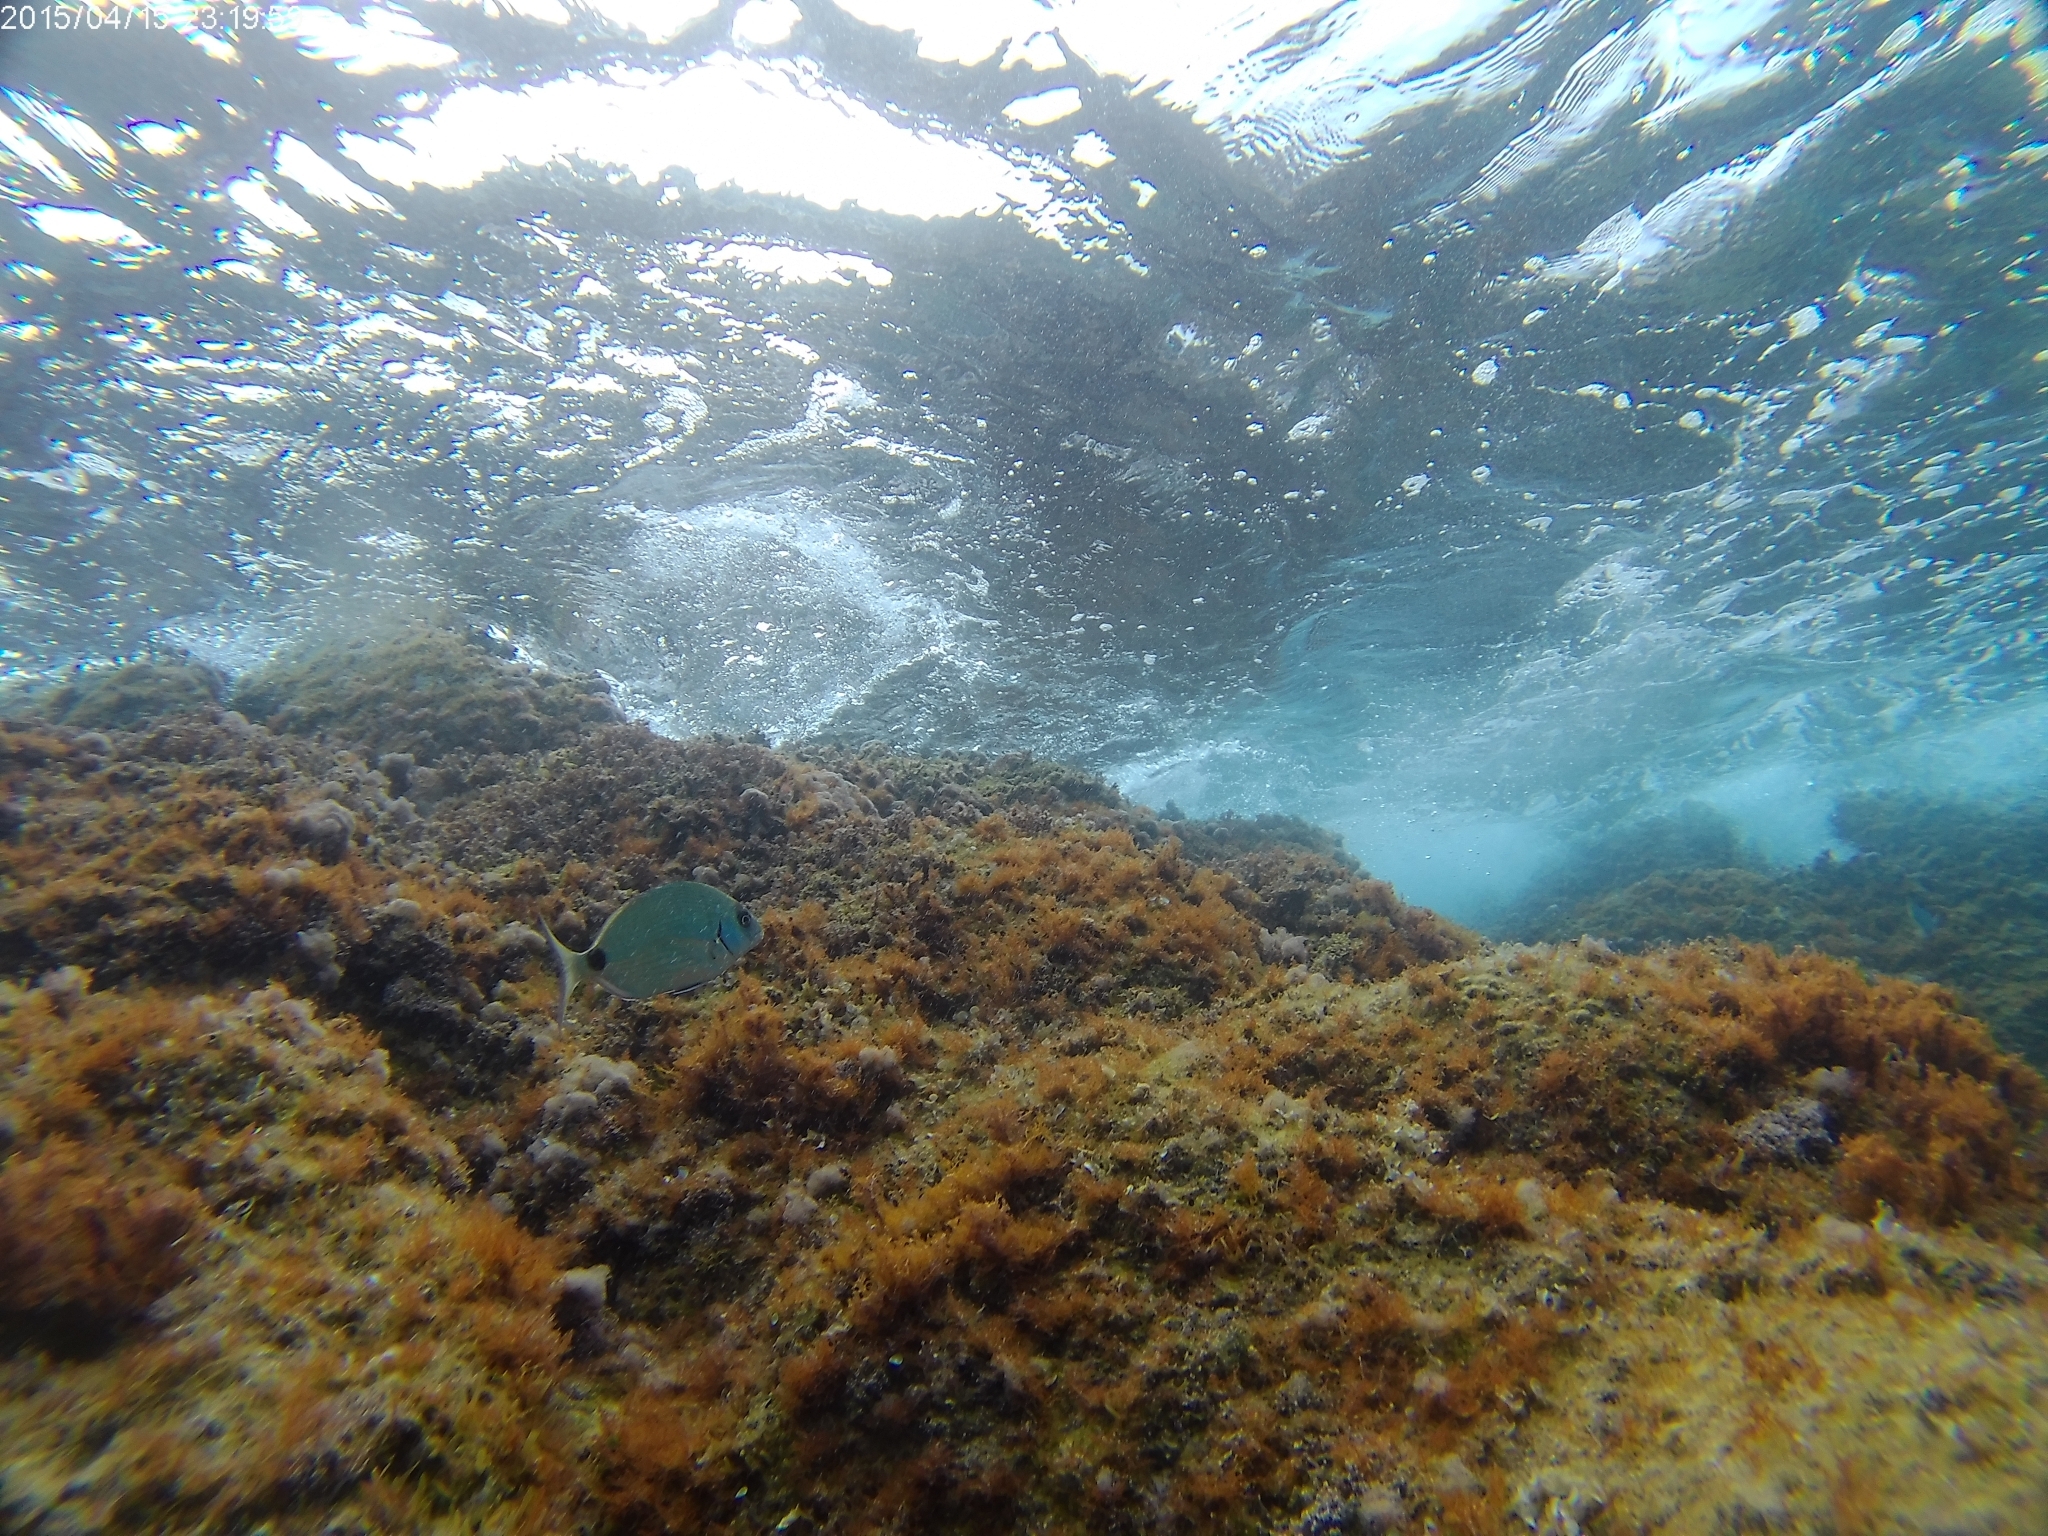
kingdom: Animalia
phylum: Chordata
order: Perciformes
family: Sparidae
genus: Diplodus
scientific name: Diplodus sargus
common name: White seabream
